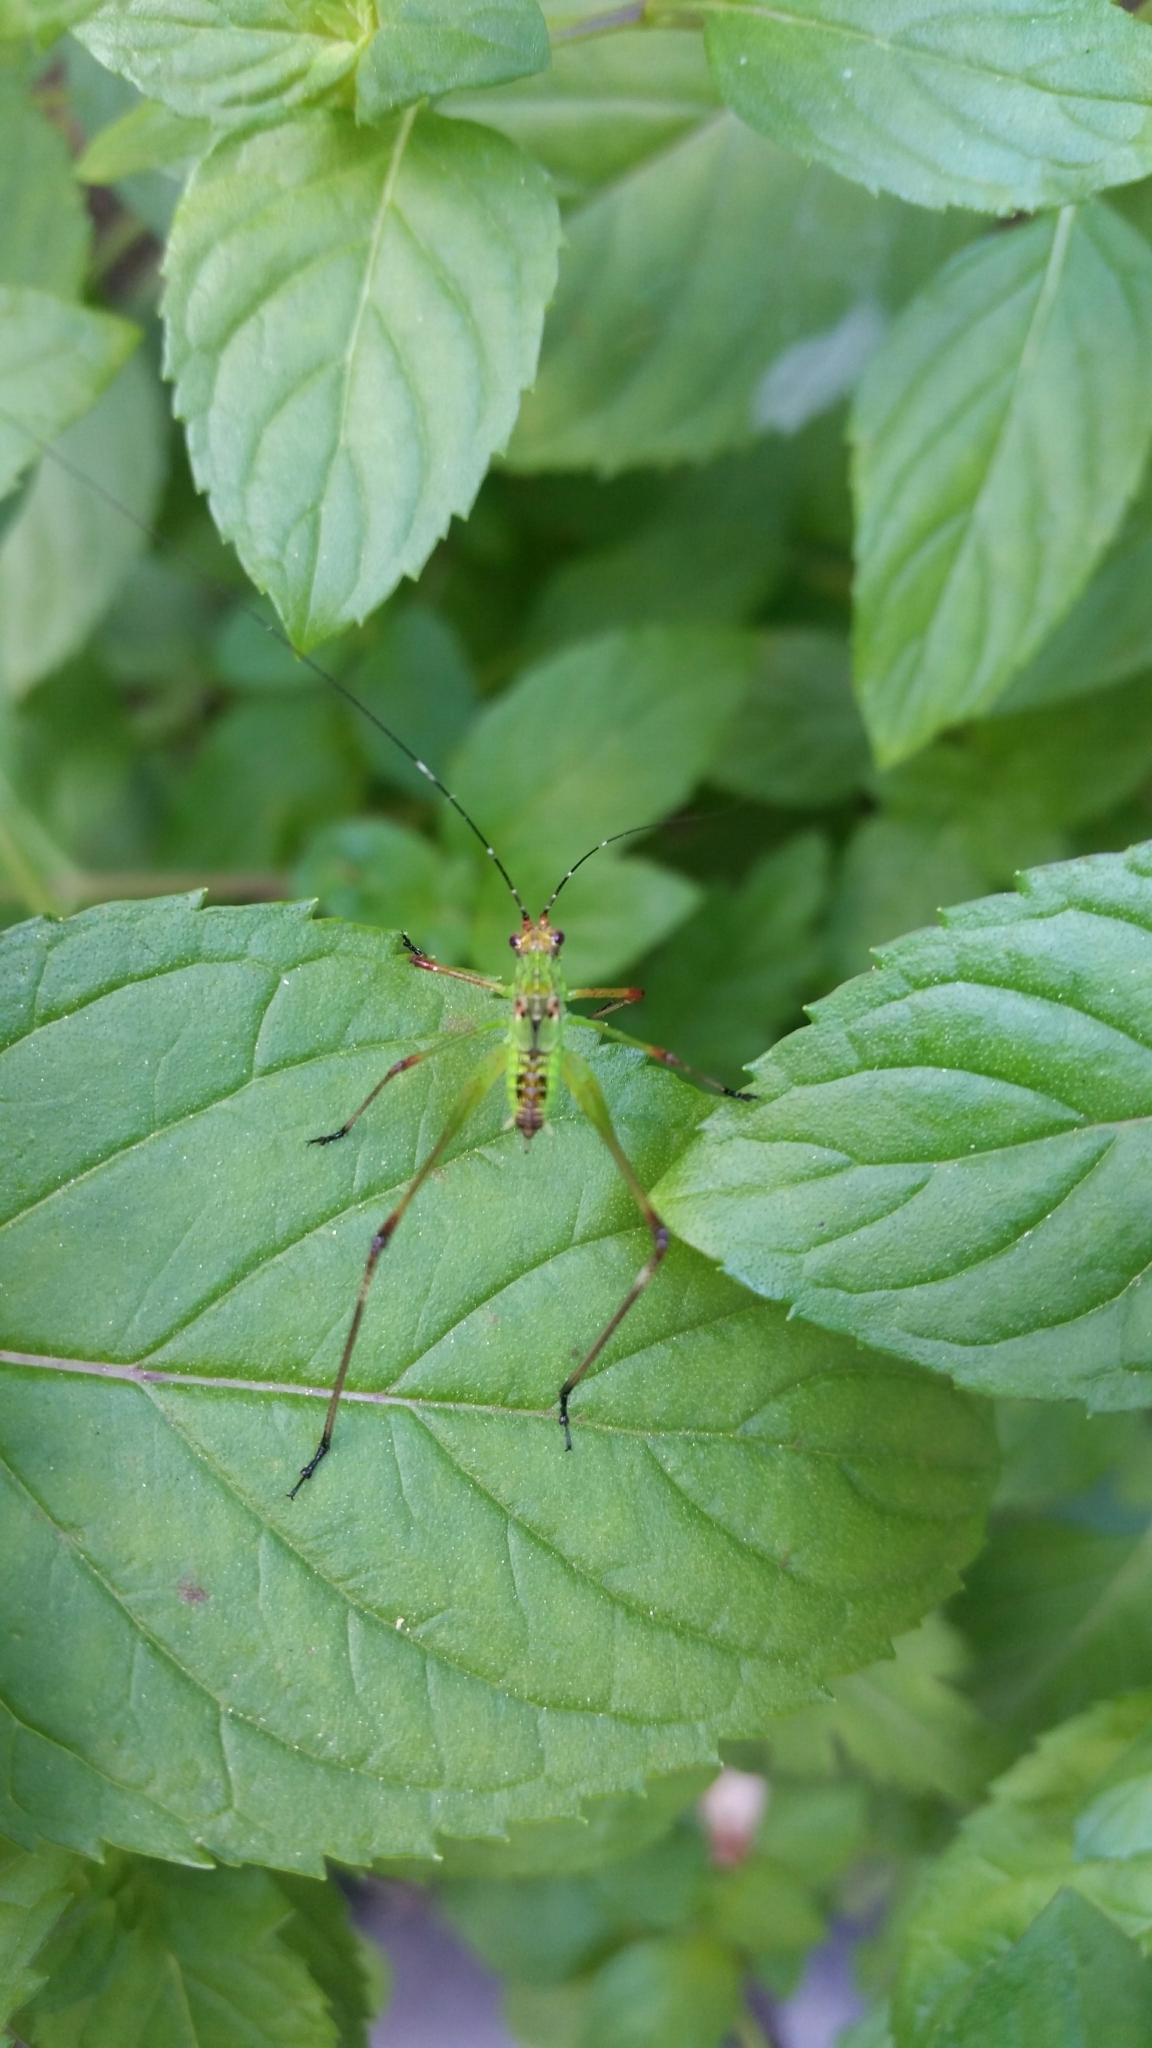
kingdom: Animalia
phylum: Arthropoda
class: Insecta
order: Orthoptera
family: Tettigoniidae
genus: Phaneroptera
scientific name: Phaneroptera nigroantennata
